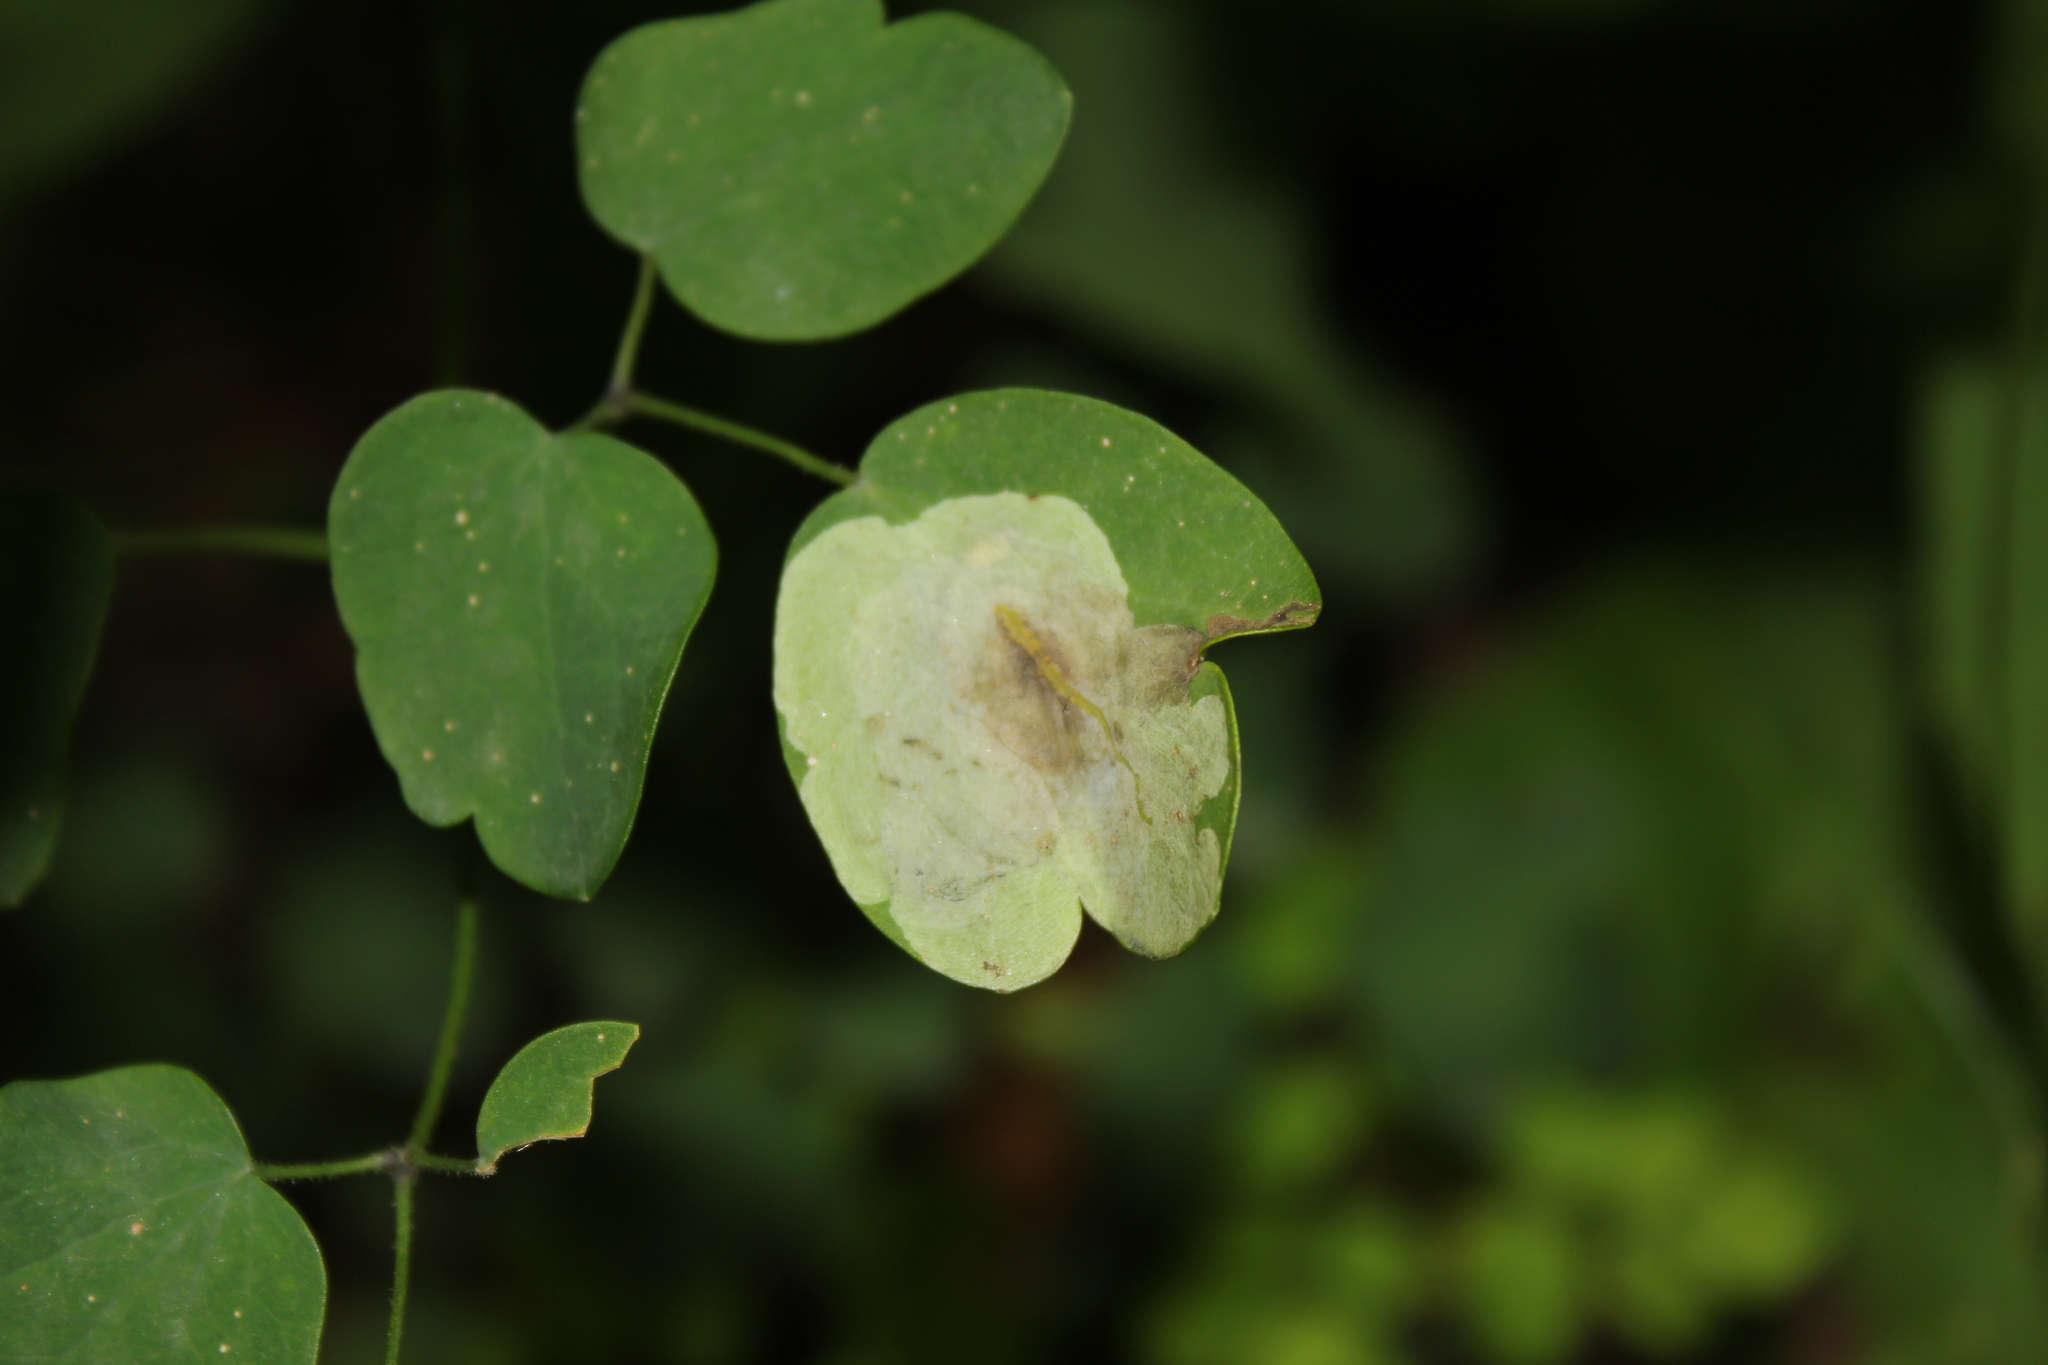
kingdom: Animalia
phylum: Arthropoda
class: Insecta
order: Diptera
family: Agromyzidae
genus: Phytomyza
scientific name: Phytomyza plumiseta
